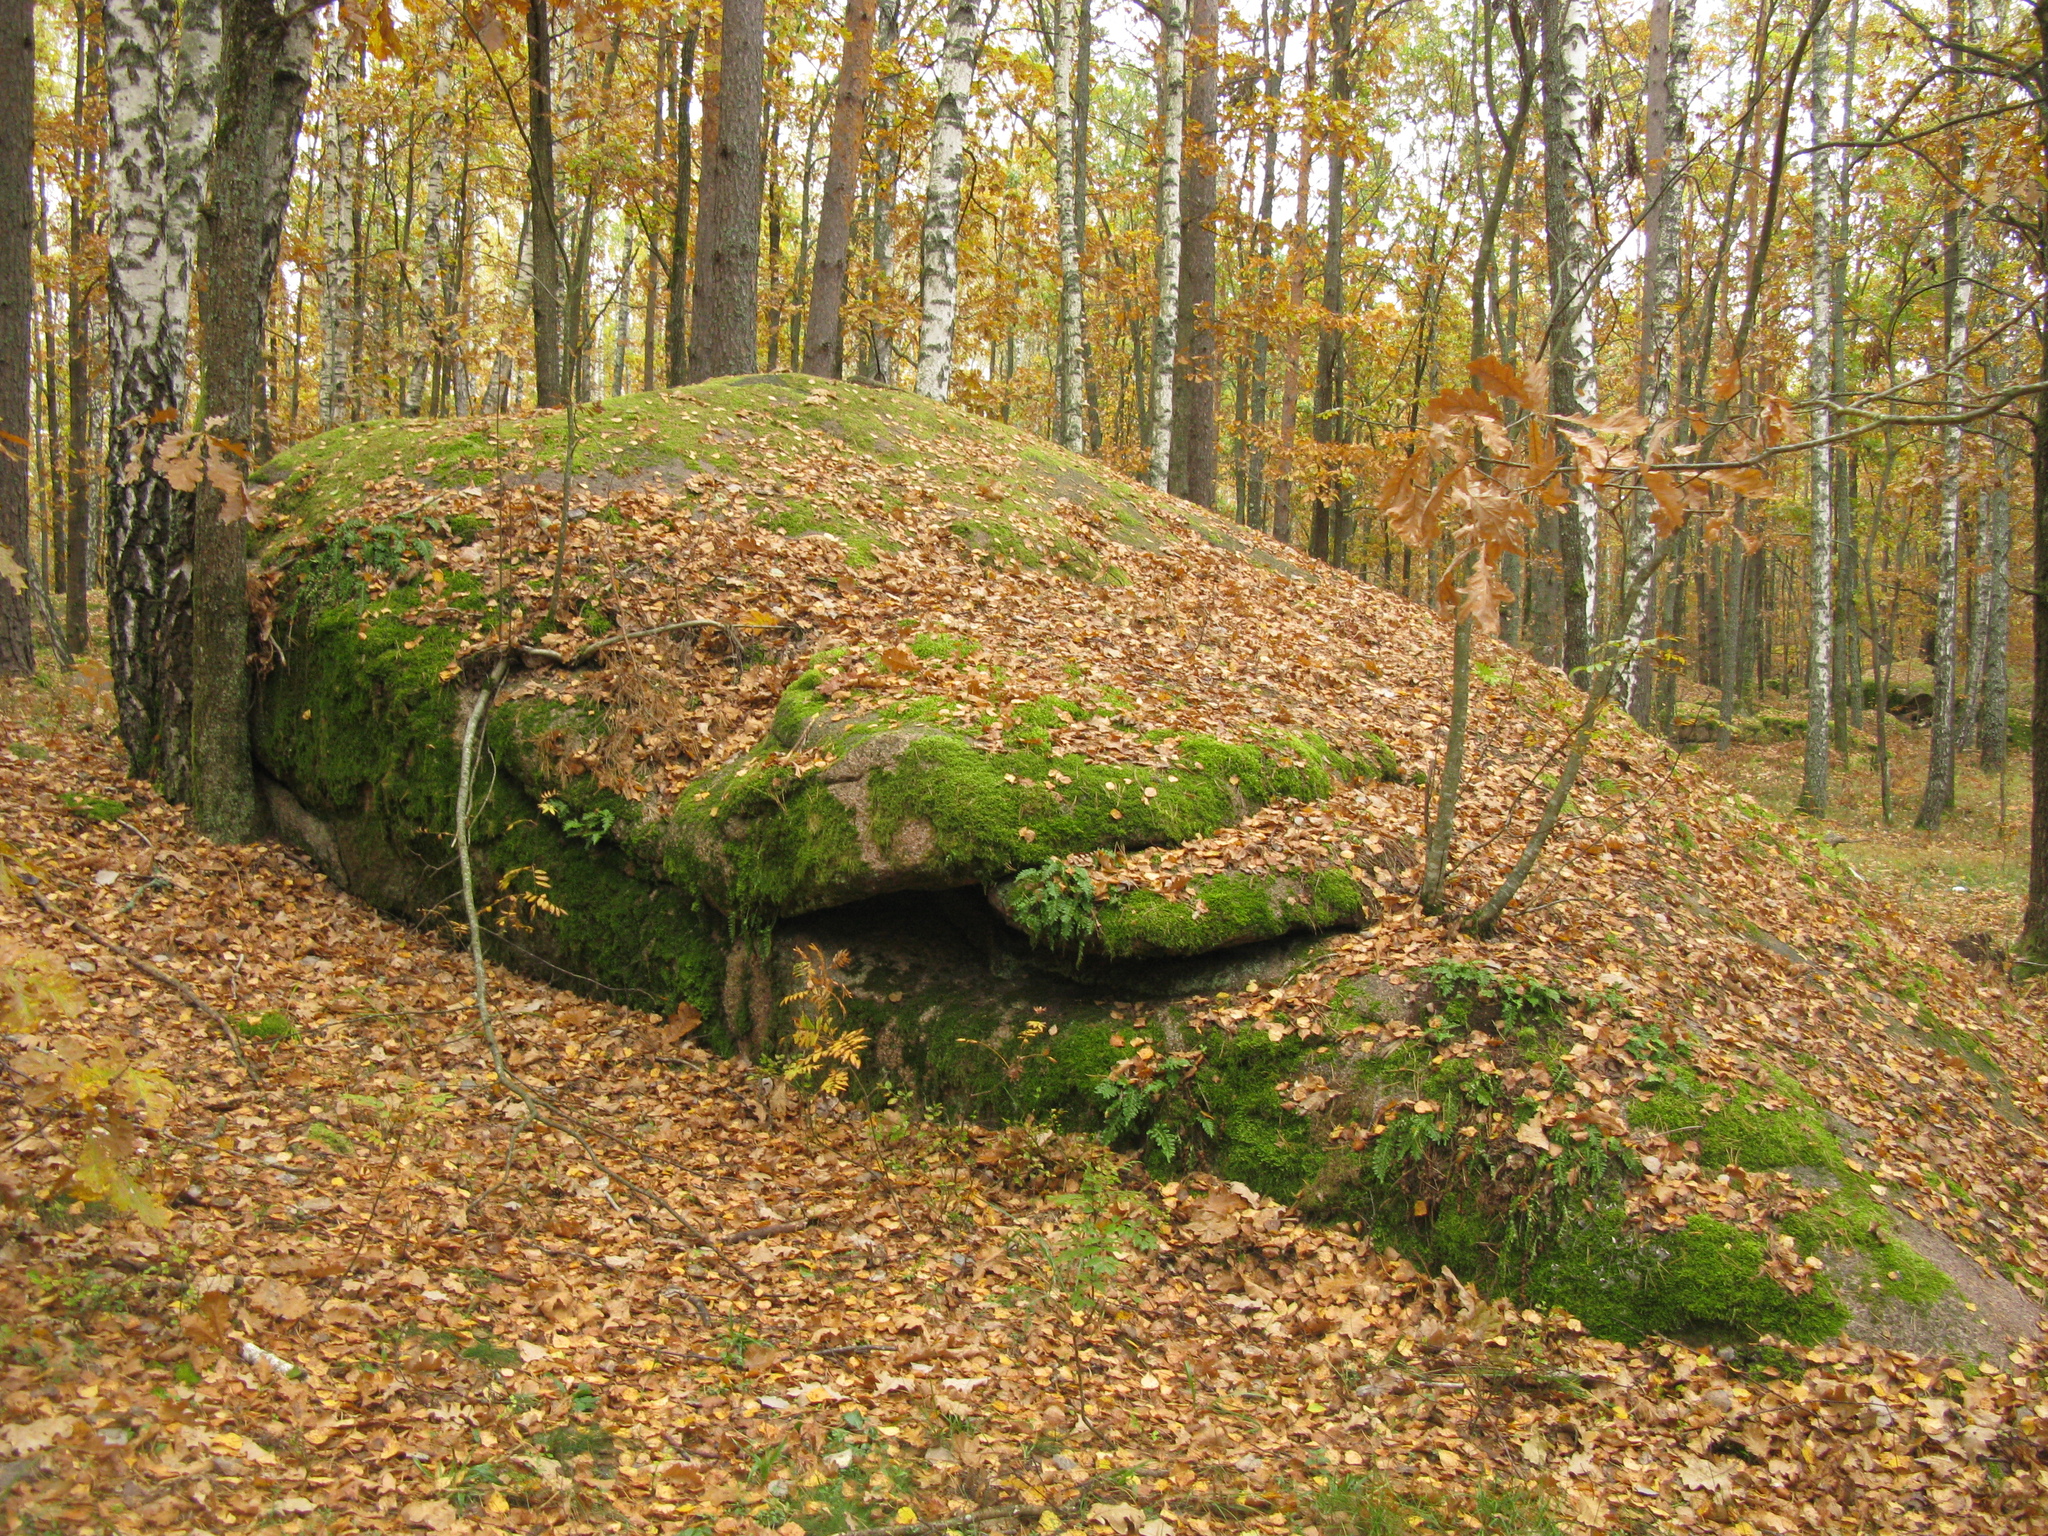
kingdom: Plantae
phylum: Tracheophyta
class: Magnoliopsida
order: Fagales
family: Fagaceae
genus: Quercus
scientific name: Quercus robur
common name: Pedunculate oak
